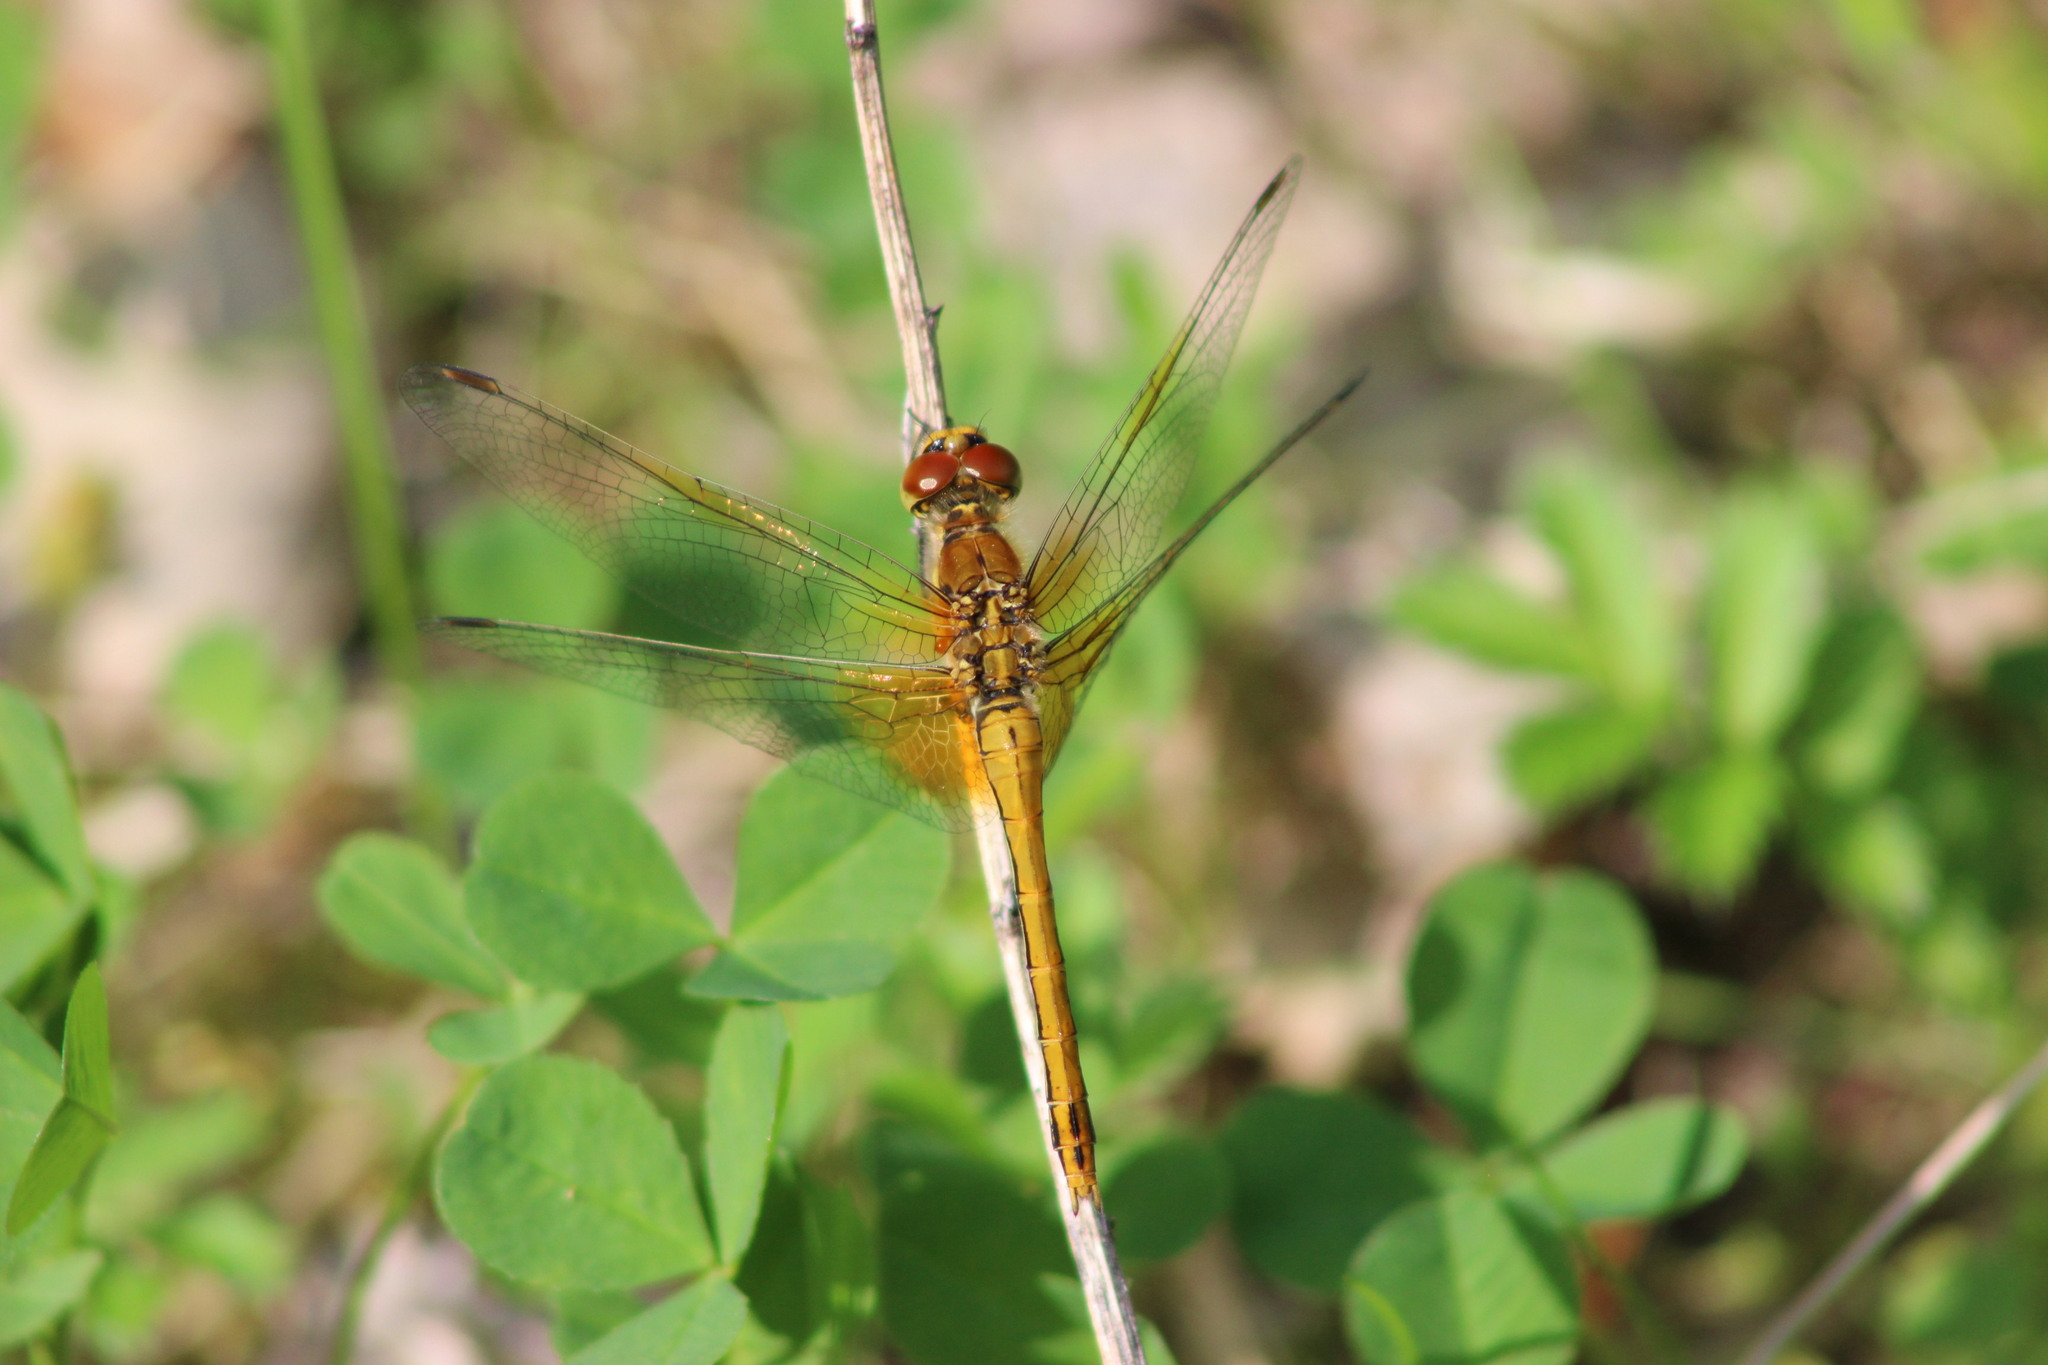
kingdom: Animalia
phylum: Arthropoda
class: Insecta
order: Odonata
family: Libellulidae
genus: Sympetrum
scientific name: Sympetrum flaveolum
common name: Yellow-winged darter
